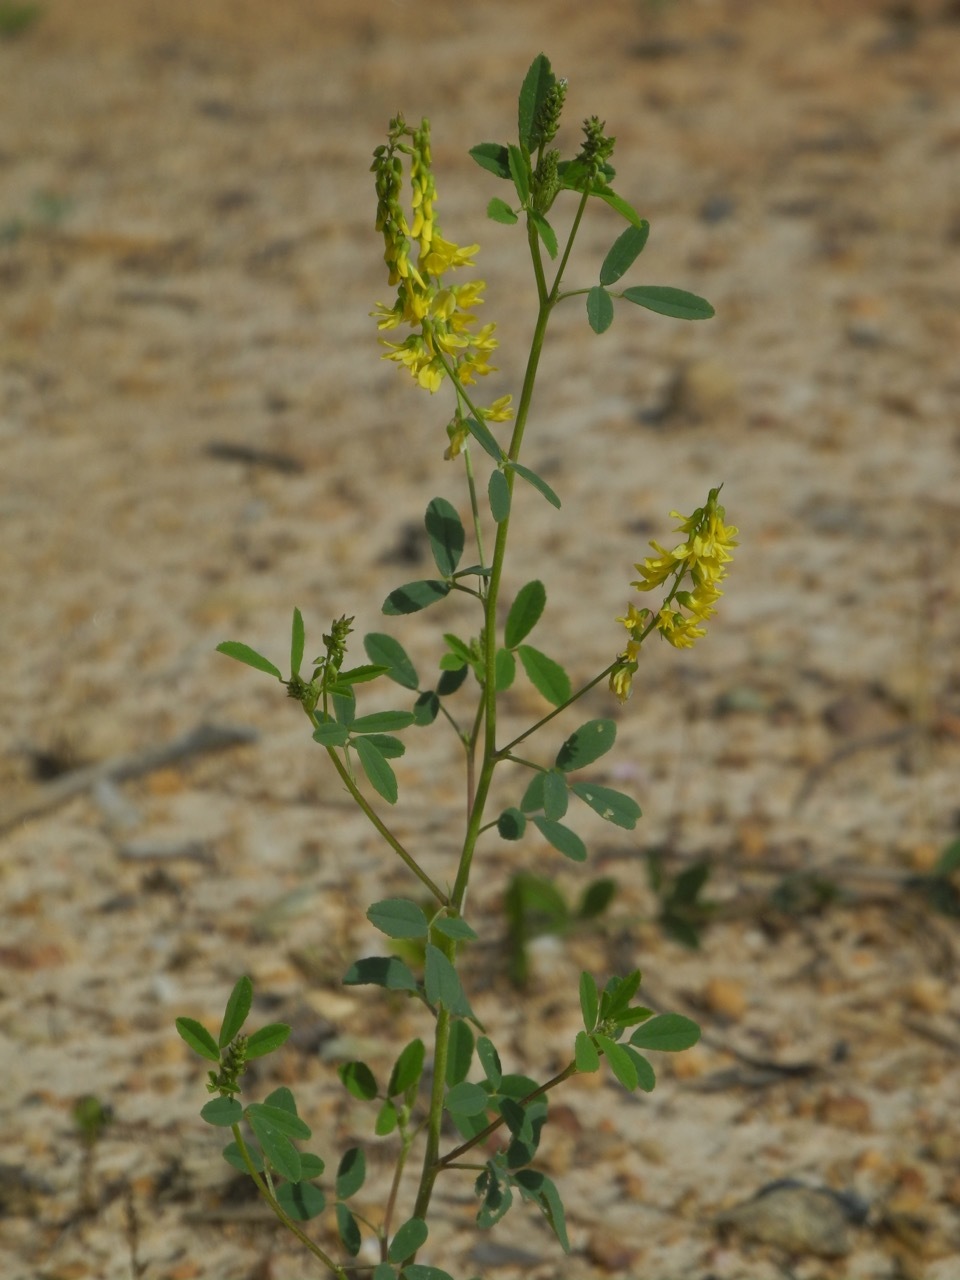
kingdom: Plantae
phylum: Tracheophyta
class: Magnoliopsida
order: Fabales
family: Fabaceae
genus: Melilotus
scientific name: Melilotus officinalis
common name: Sweetclover
